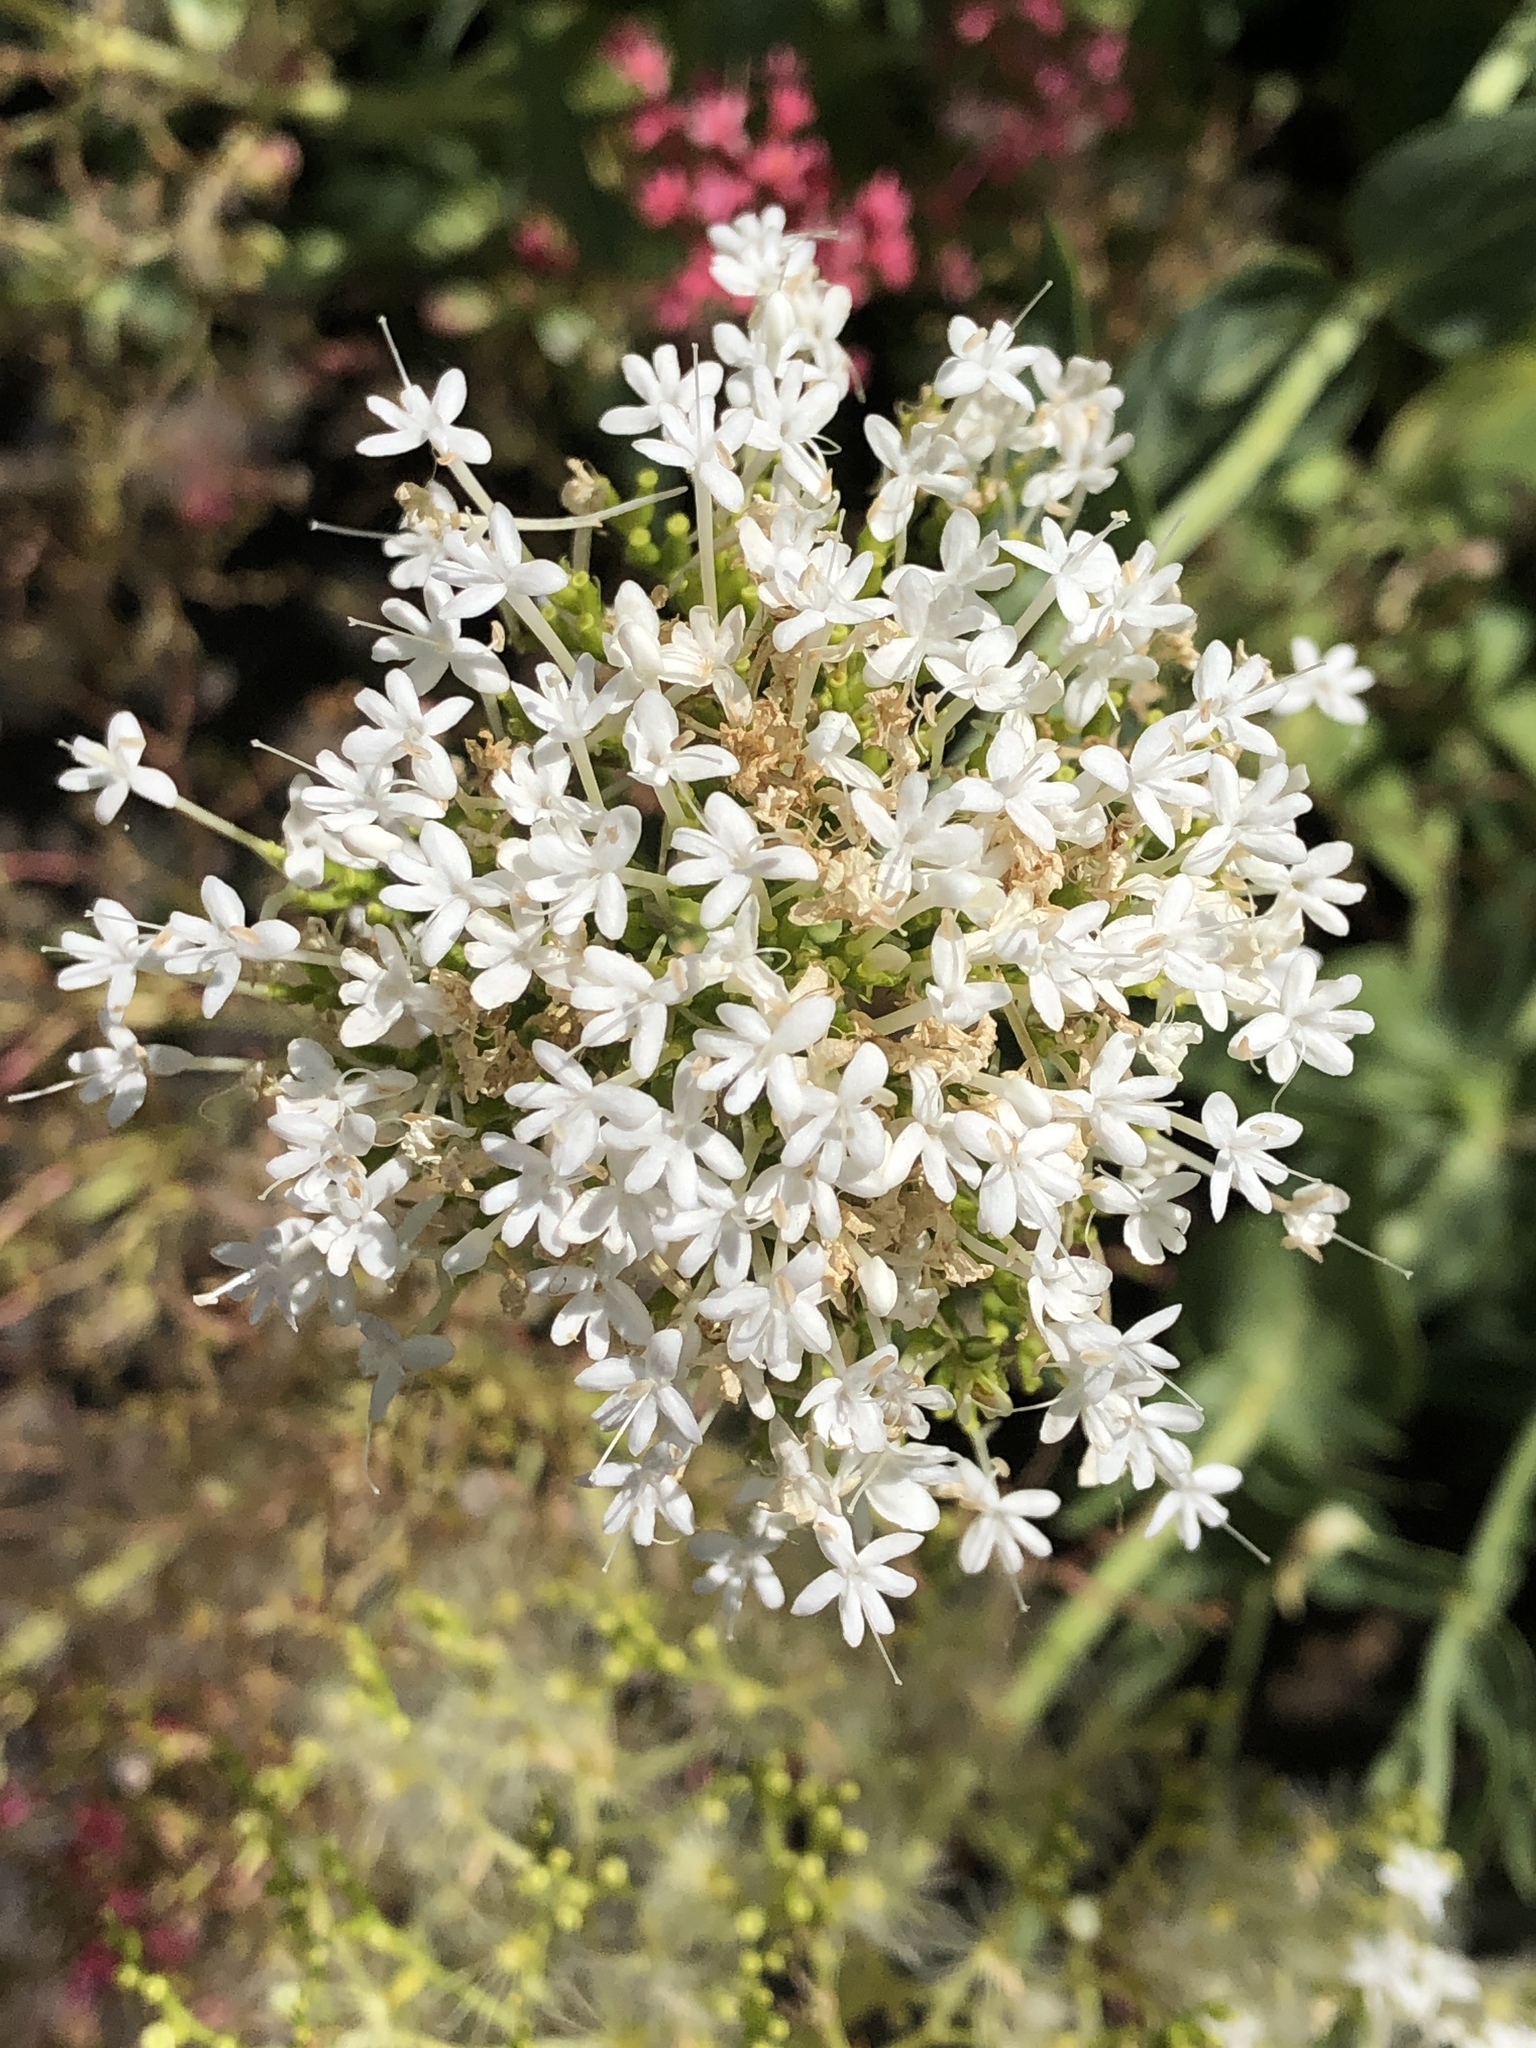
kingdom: Plantae
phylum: Tracheophyta
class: Magnoliopsida
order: Dipsacales
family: Caprifoliaceae
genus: Centranthus
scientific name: Centranthus ruber
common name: Red valerian
